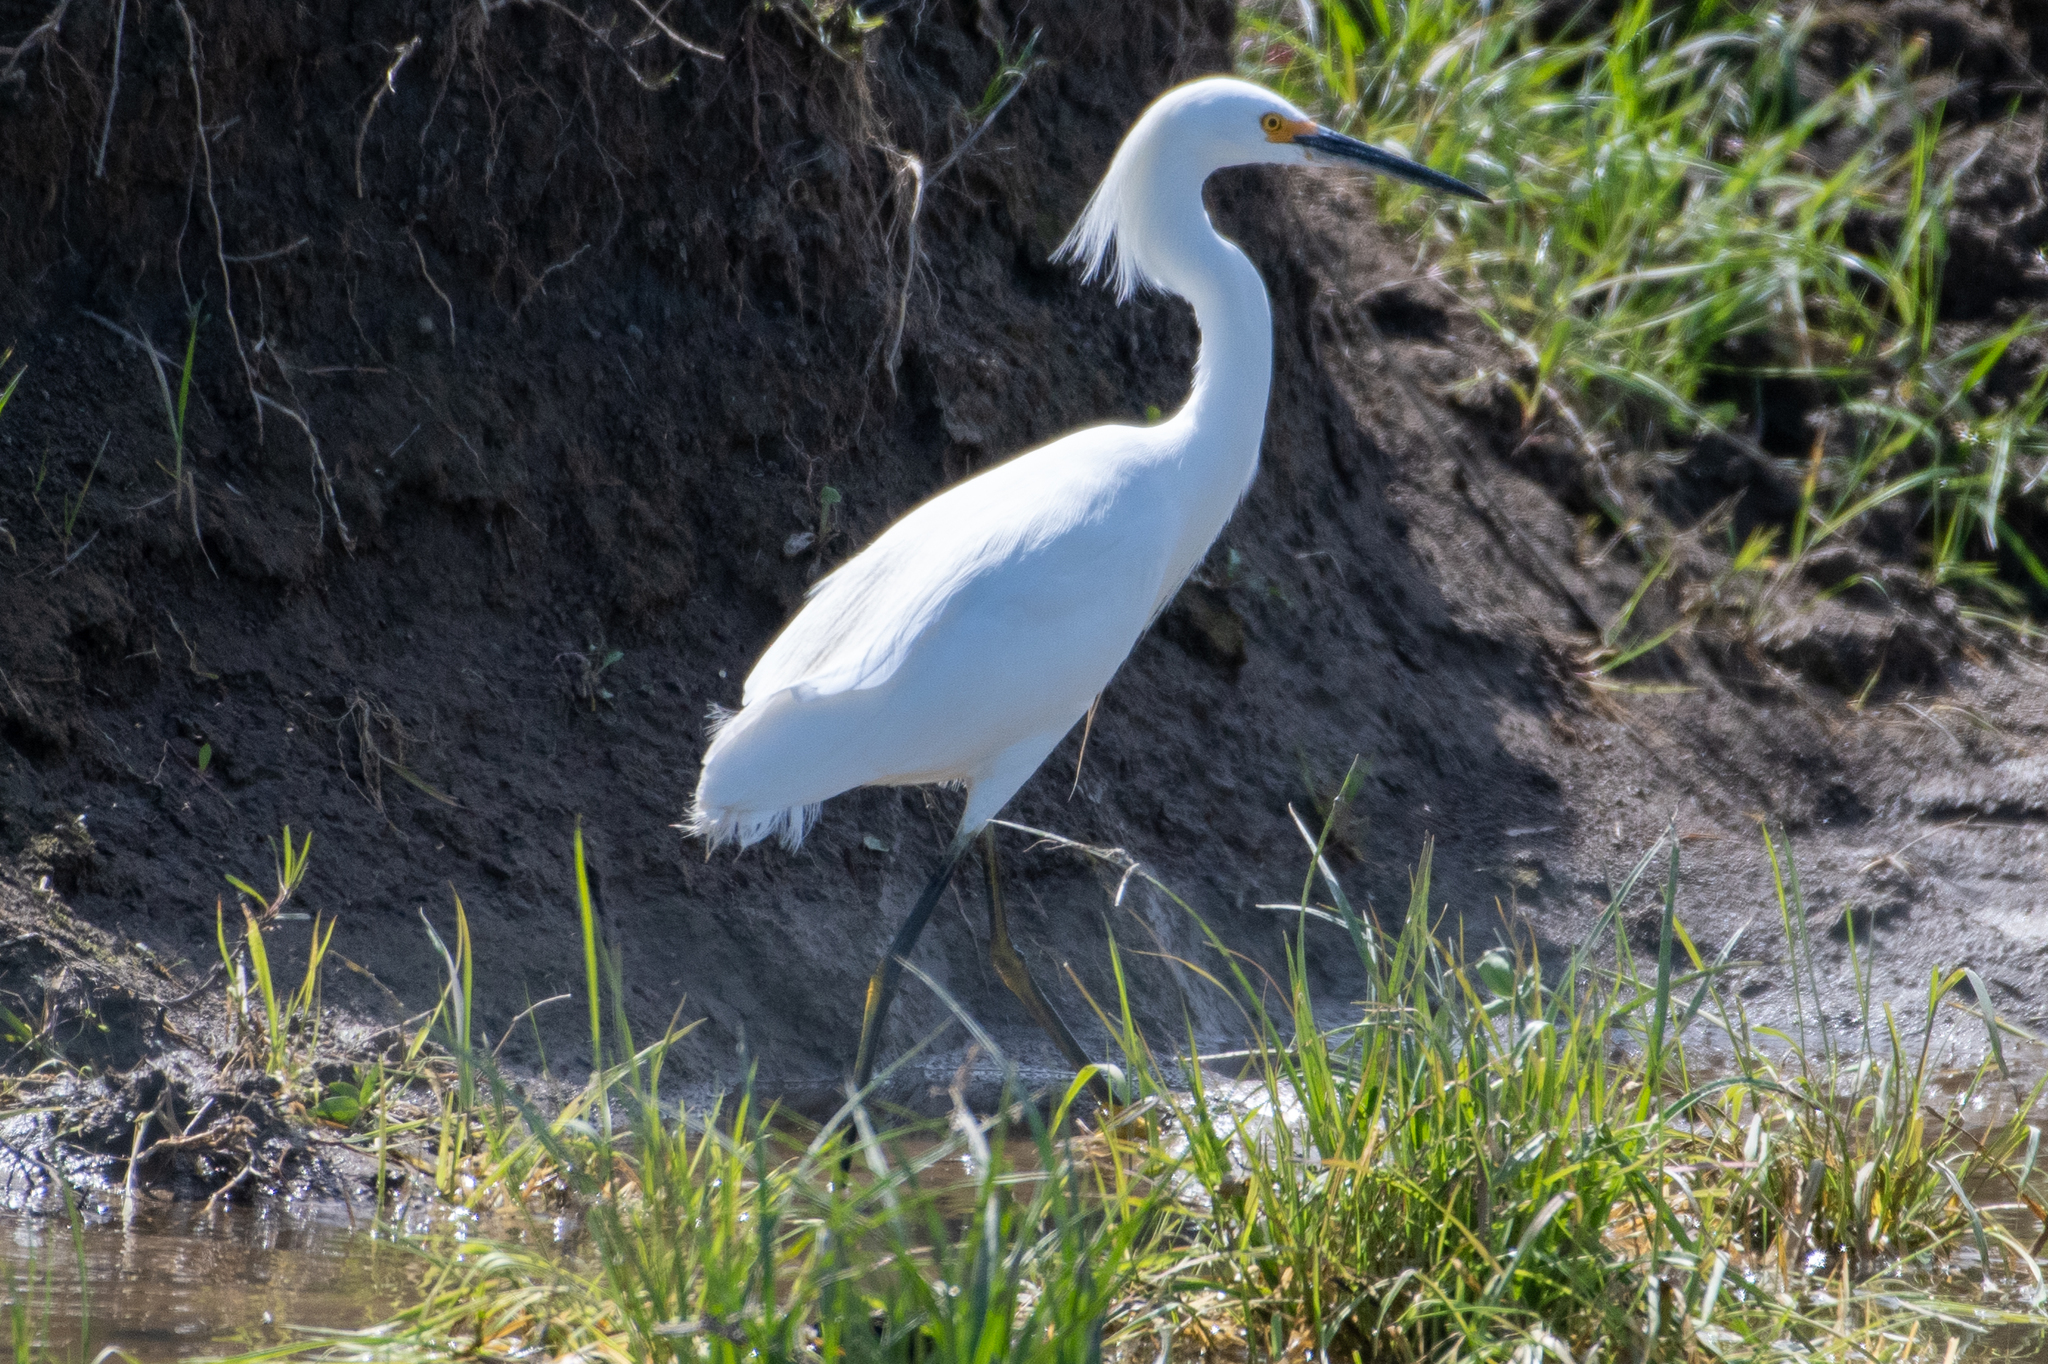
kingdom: Animalia
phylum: Chordata
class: Aves
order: Pelecaniformes
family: Ardeidae
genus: Egretta
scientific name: Egretta thula
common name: Snowy egret
